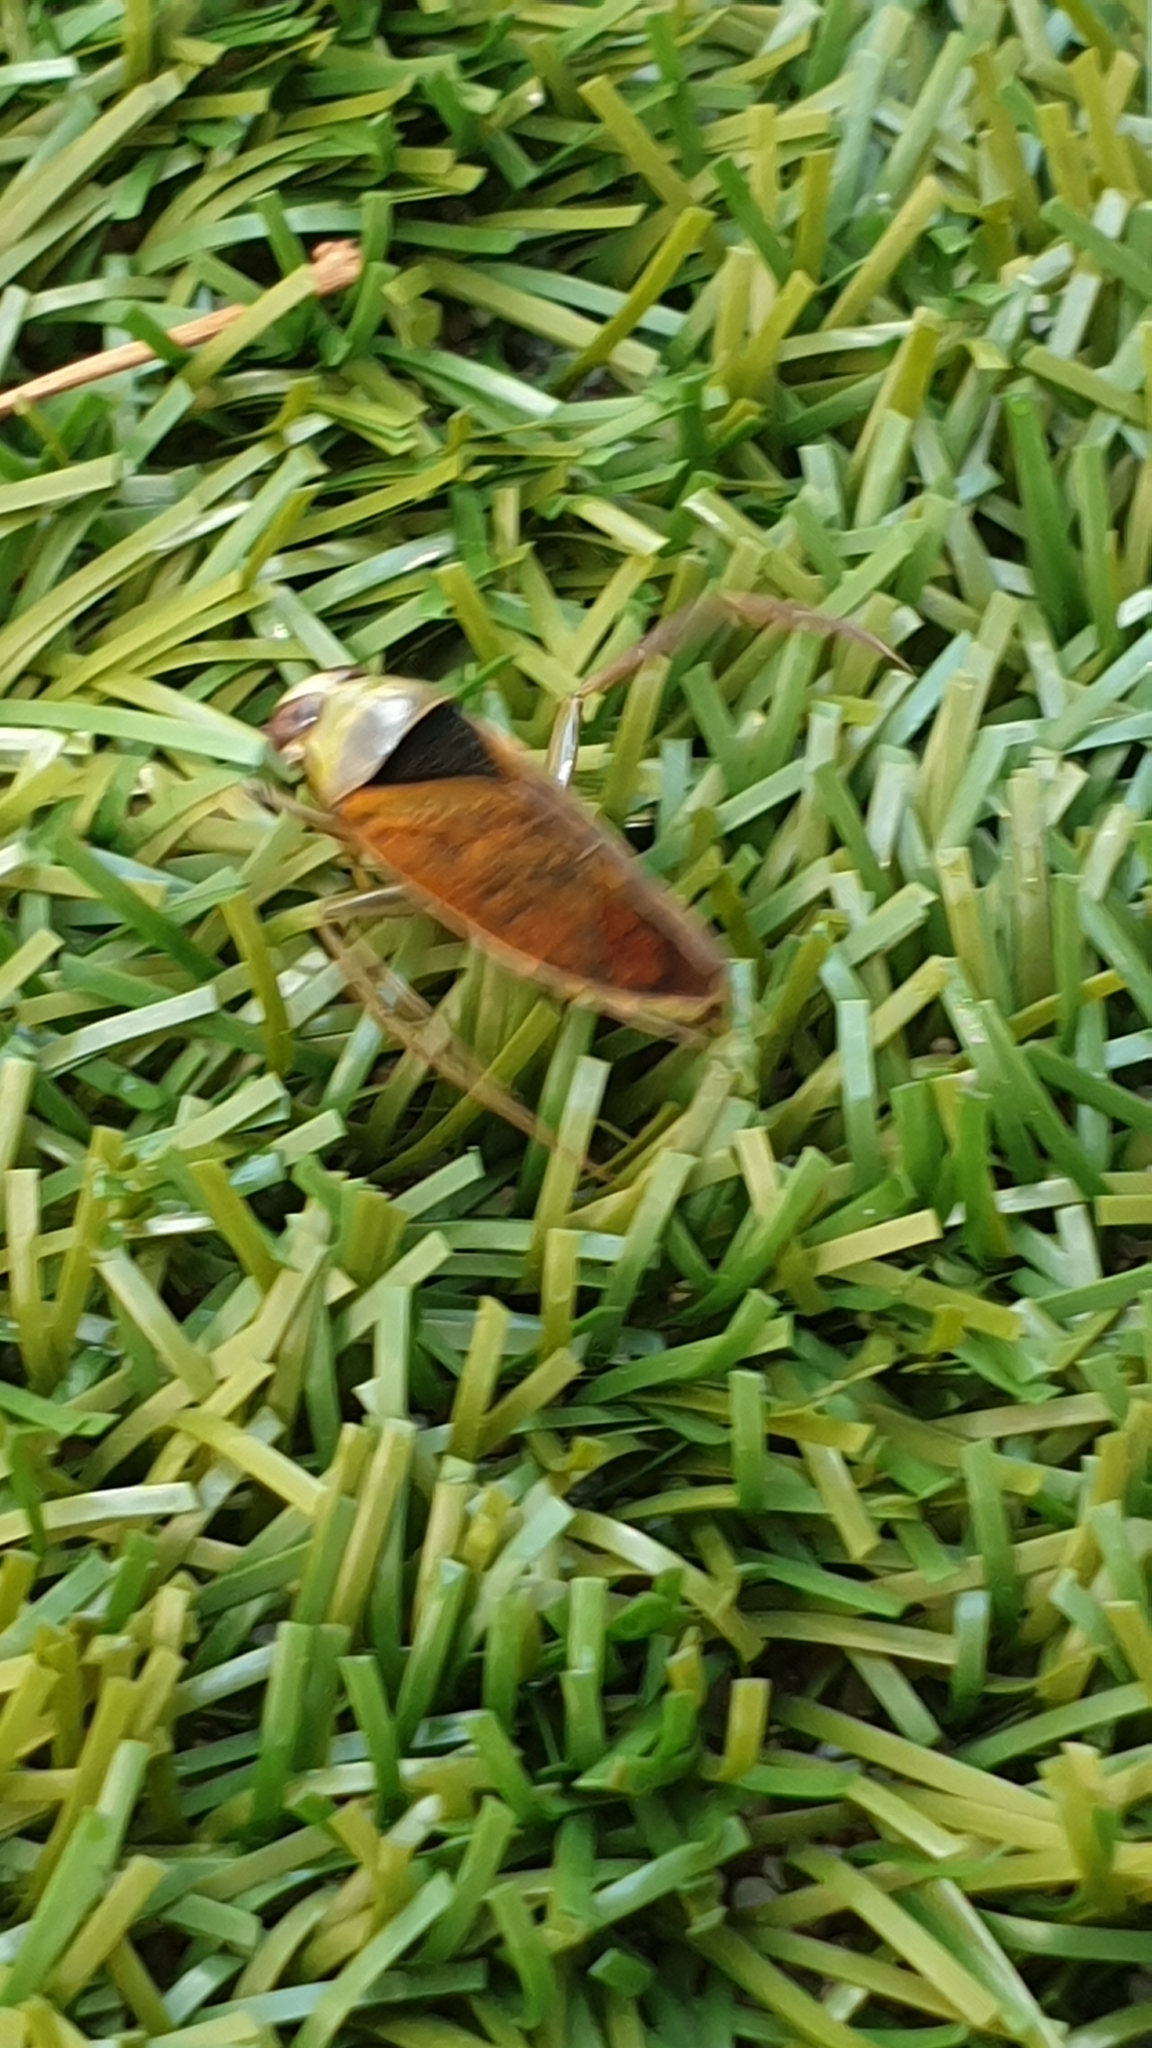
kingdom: Animalia
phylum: Arthropoda
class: Insecta
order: Hemiptera
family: Notonectidae
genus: Notonecta
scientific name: Notonecta maculata
